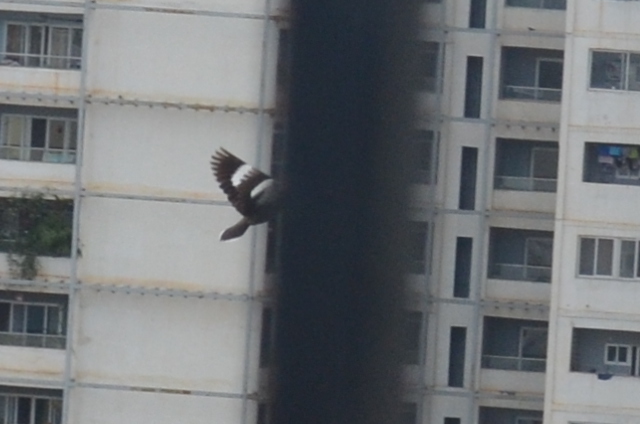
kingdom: Animalia
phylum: Chordata
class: Aves
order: Passeriformes
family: Sturnidae
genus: Acridotheres
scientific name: Acridotheres tristis
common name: Common myna
